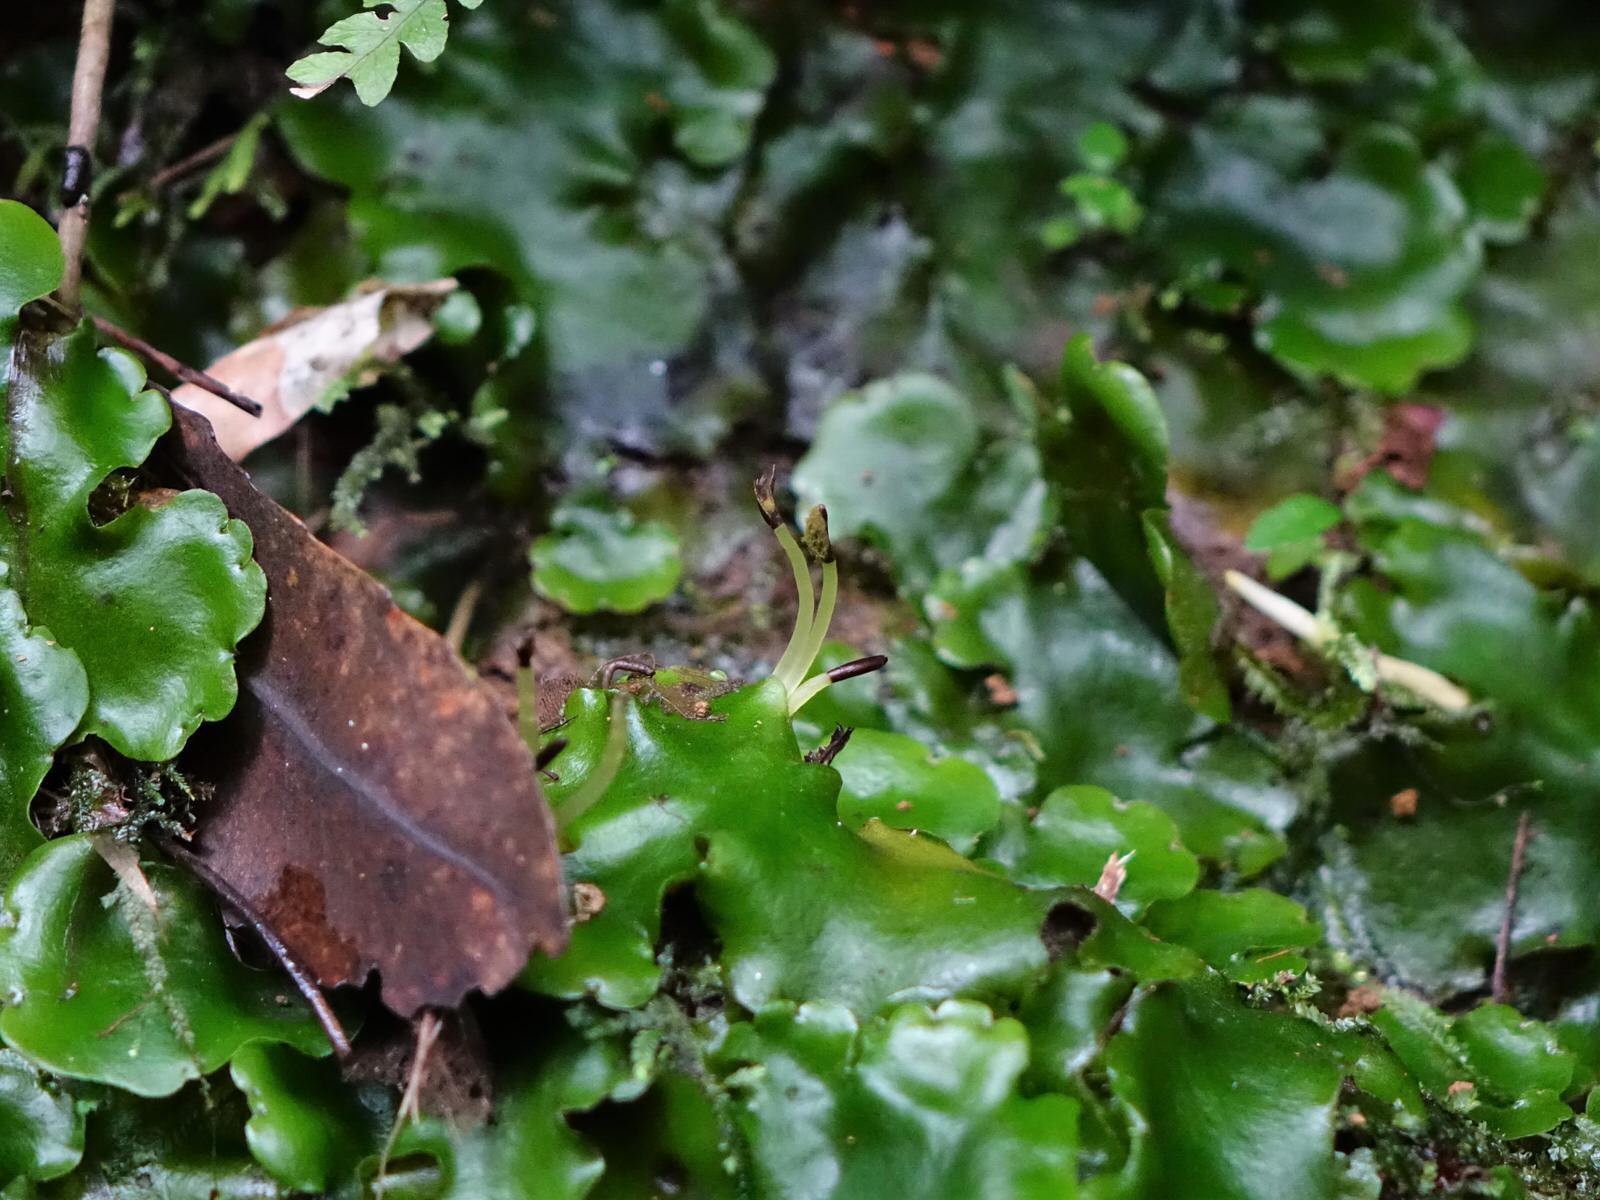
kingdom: Plantae
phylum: Marchantiophyta
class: Marchantiopsida
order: Marchantiales
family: Monocleaceae
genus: Monoclea
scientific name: Monoclea forsteri
